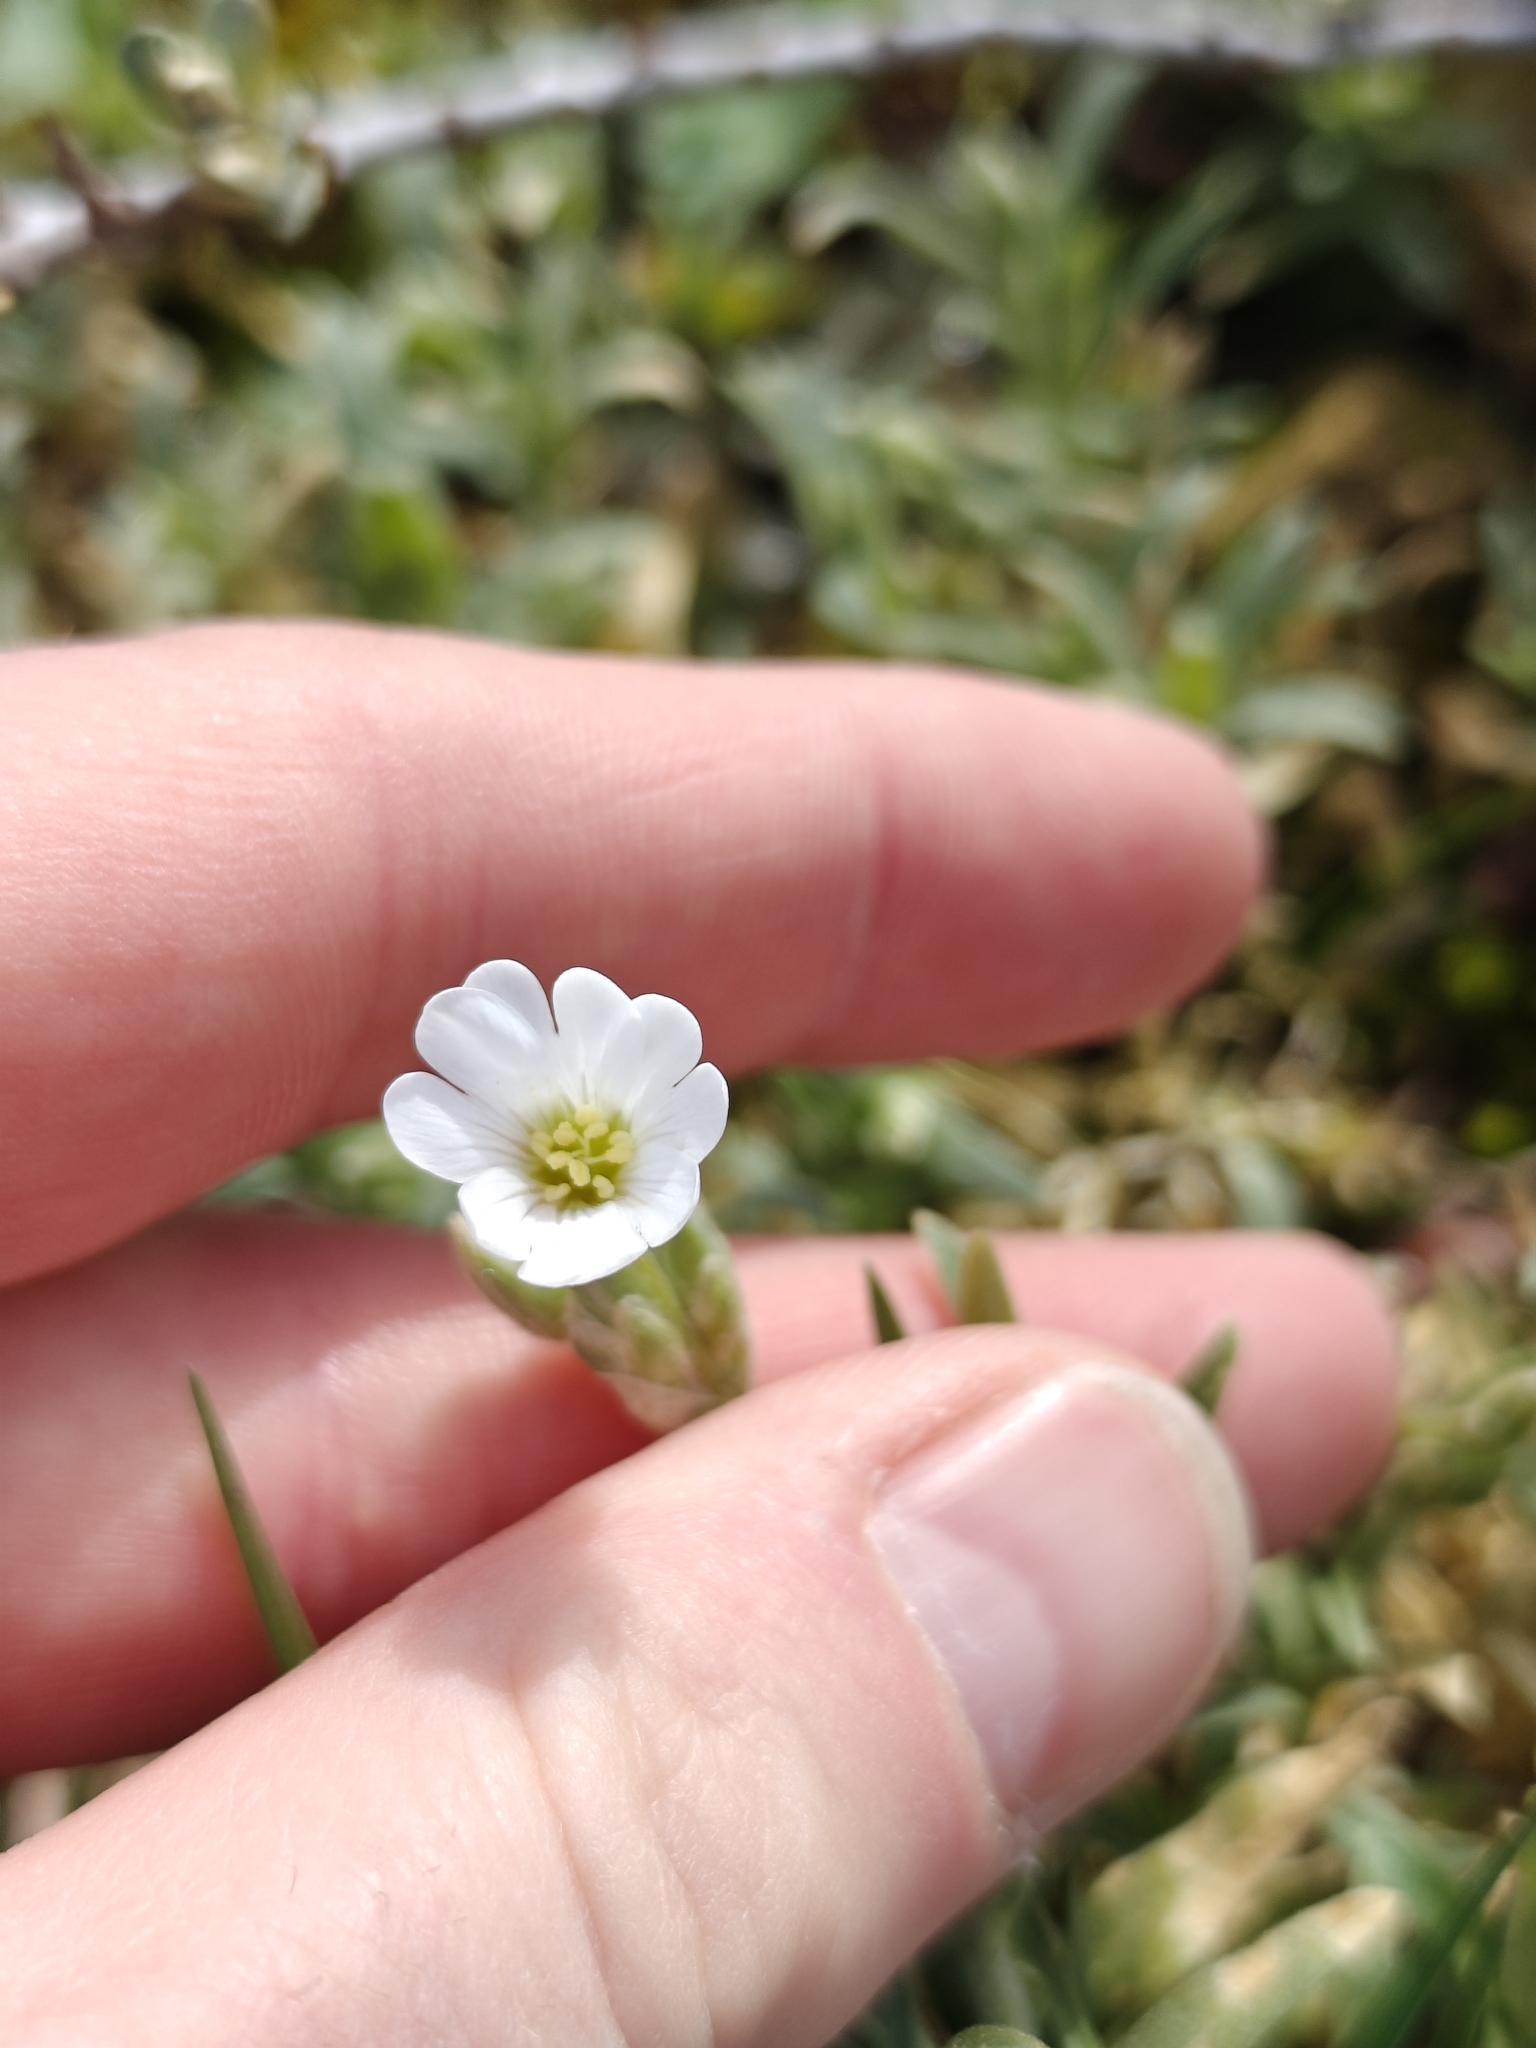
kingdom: Plantae
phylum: Tracheophyta
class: Magnoliopsida
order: Caryophyllales
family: Caryophyllaceae
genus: Cerastium
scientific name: Cerastium tomentosum
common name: Snow-in-summer
